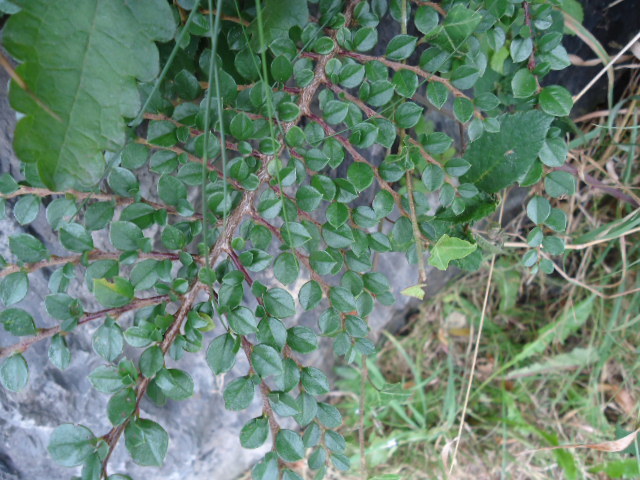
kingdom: Plantae
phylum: Tracheophyta
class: Magnoliopsida
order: Rosales
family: Rosaceae
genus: Cotoneaster
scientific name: Cotoneaster horizontalis
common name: Wall cotoneaster
